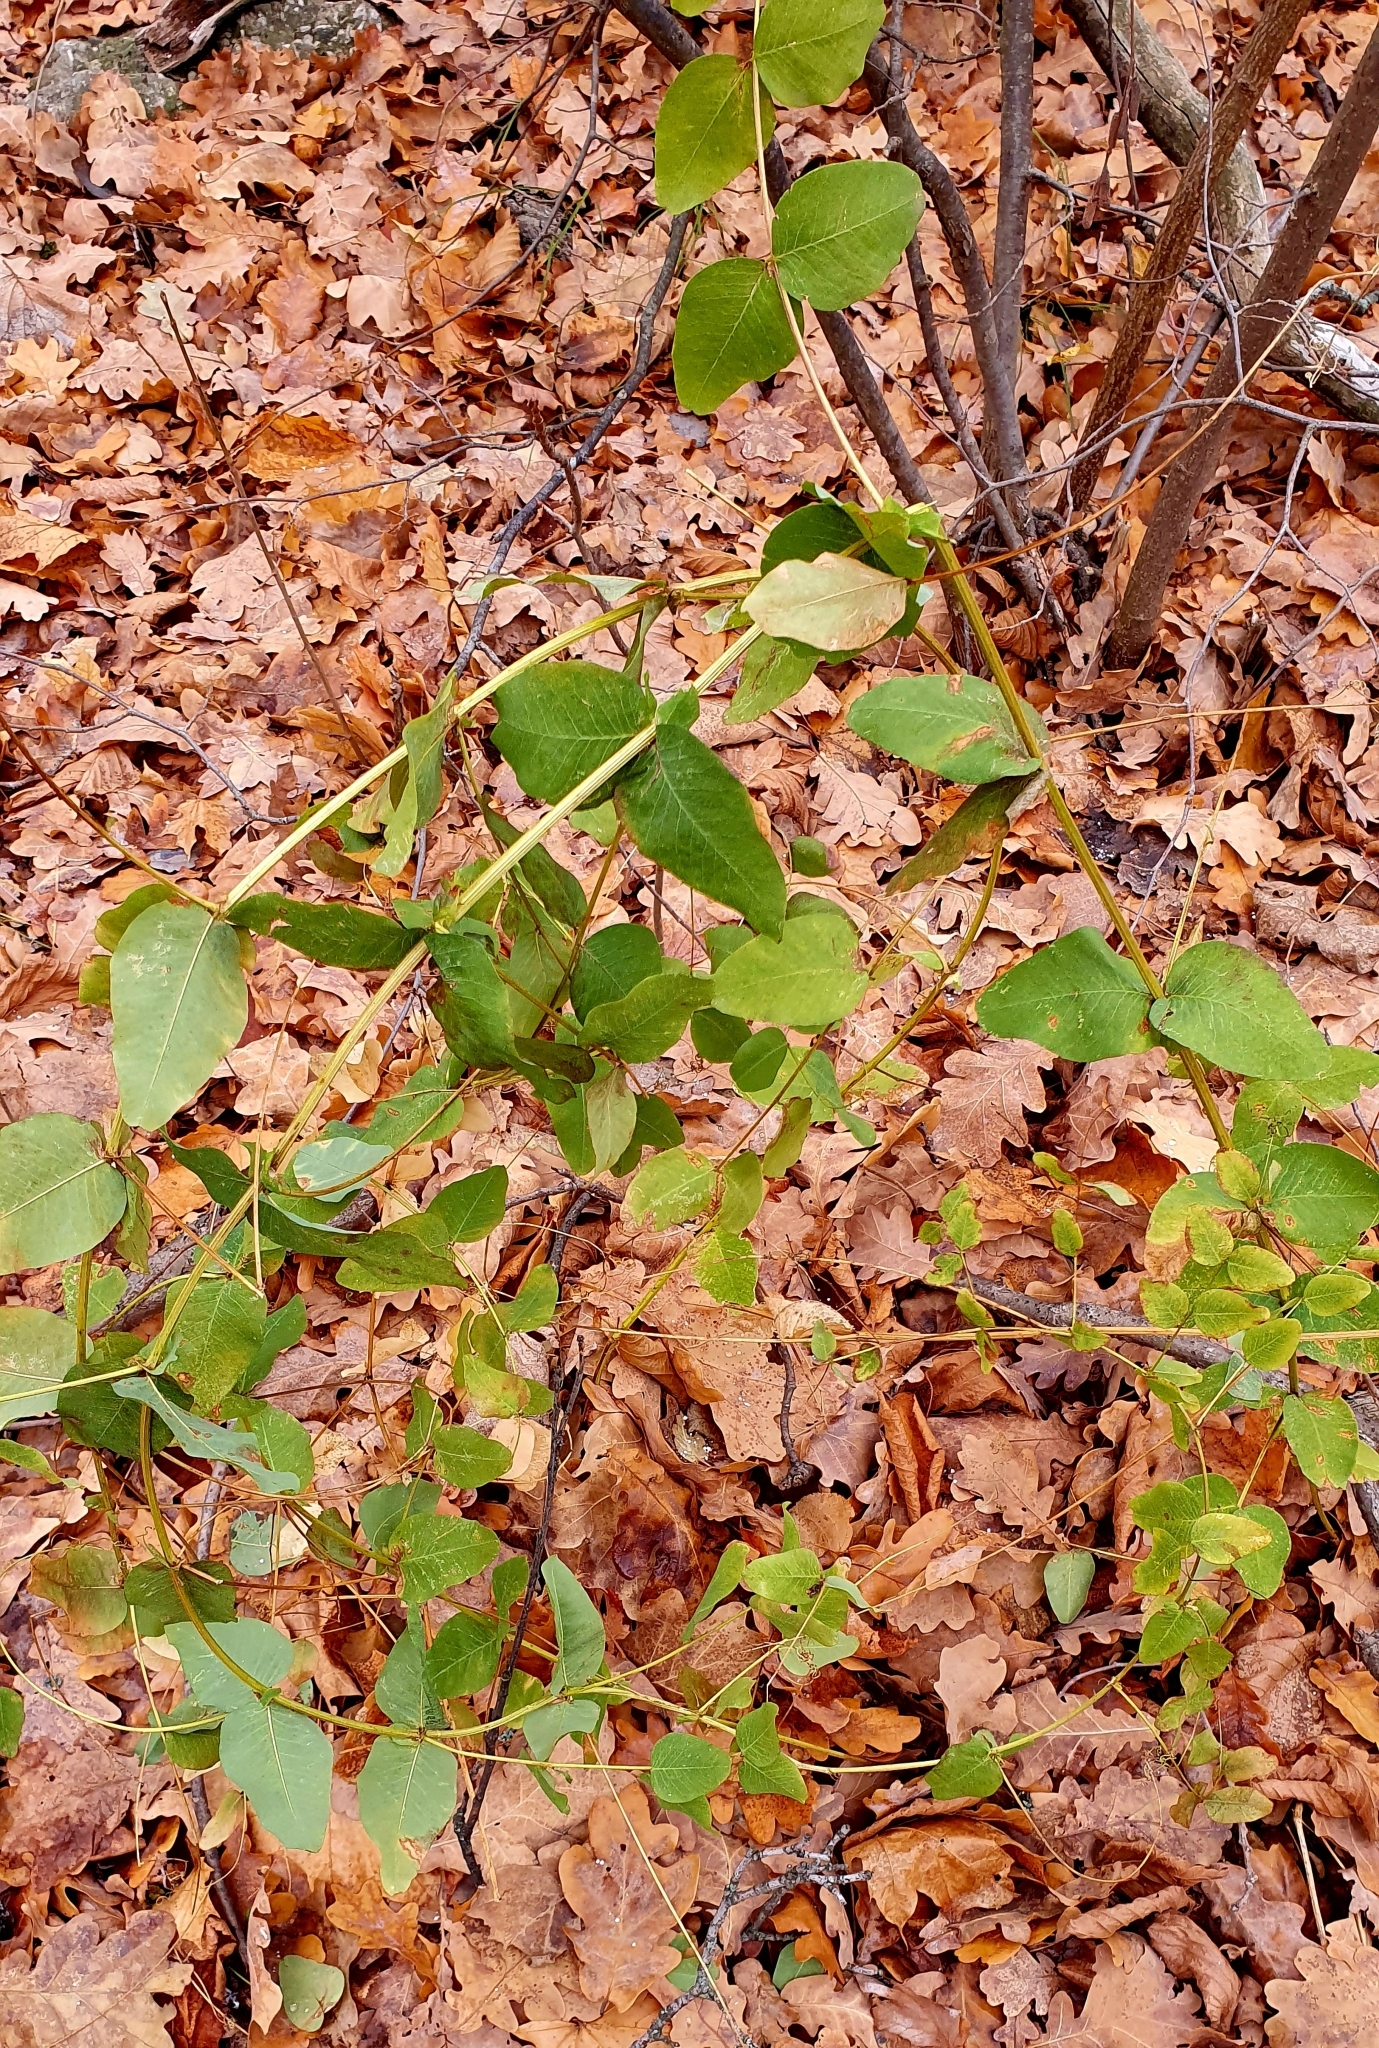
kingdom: Plantae
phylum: Tracheophyta
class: Magnoliopsida
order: Fabales
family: Fabaceae
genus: Vicia
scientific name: Vicia pisiformis
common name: Pale-flower vetch
